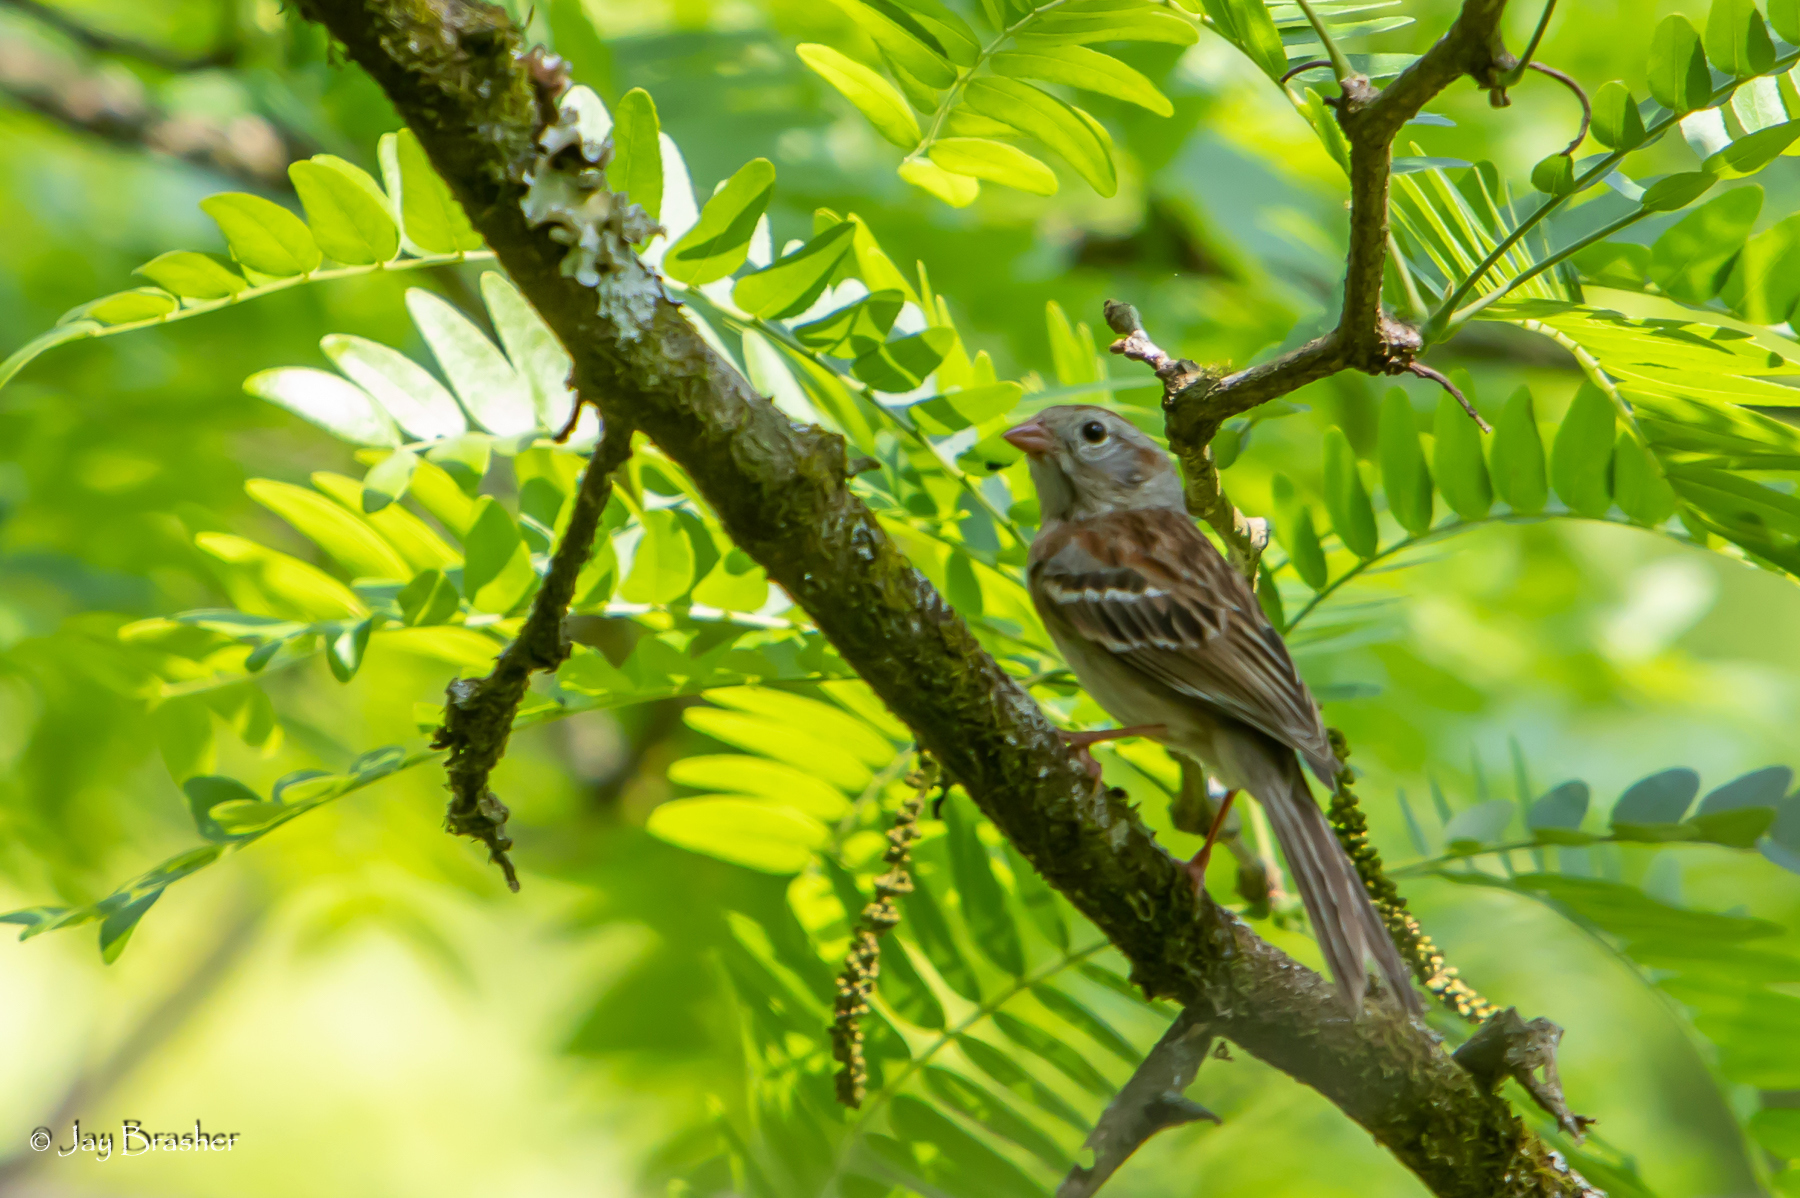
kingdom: Animalia
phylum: Chordata
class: Aves
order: Passeriformes
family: Passerellidae
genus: Spizella
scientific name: Spizella pusilla
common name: Field sparrow
